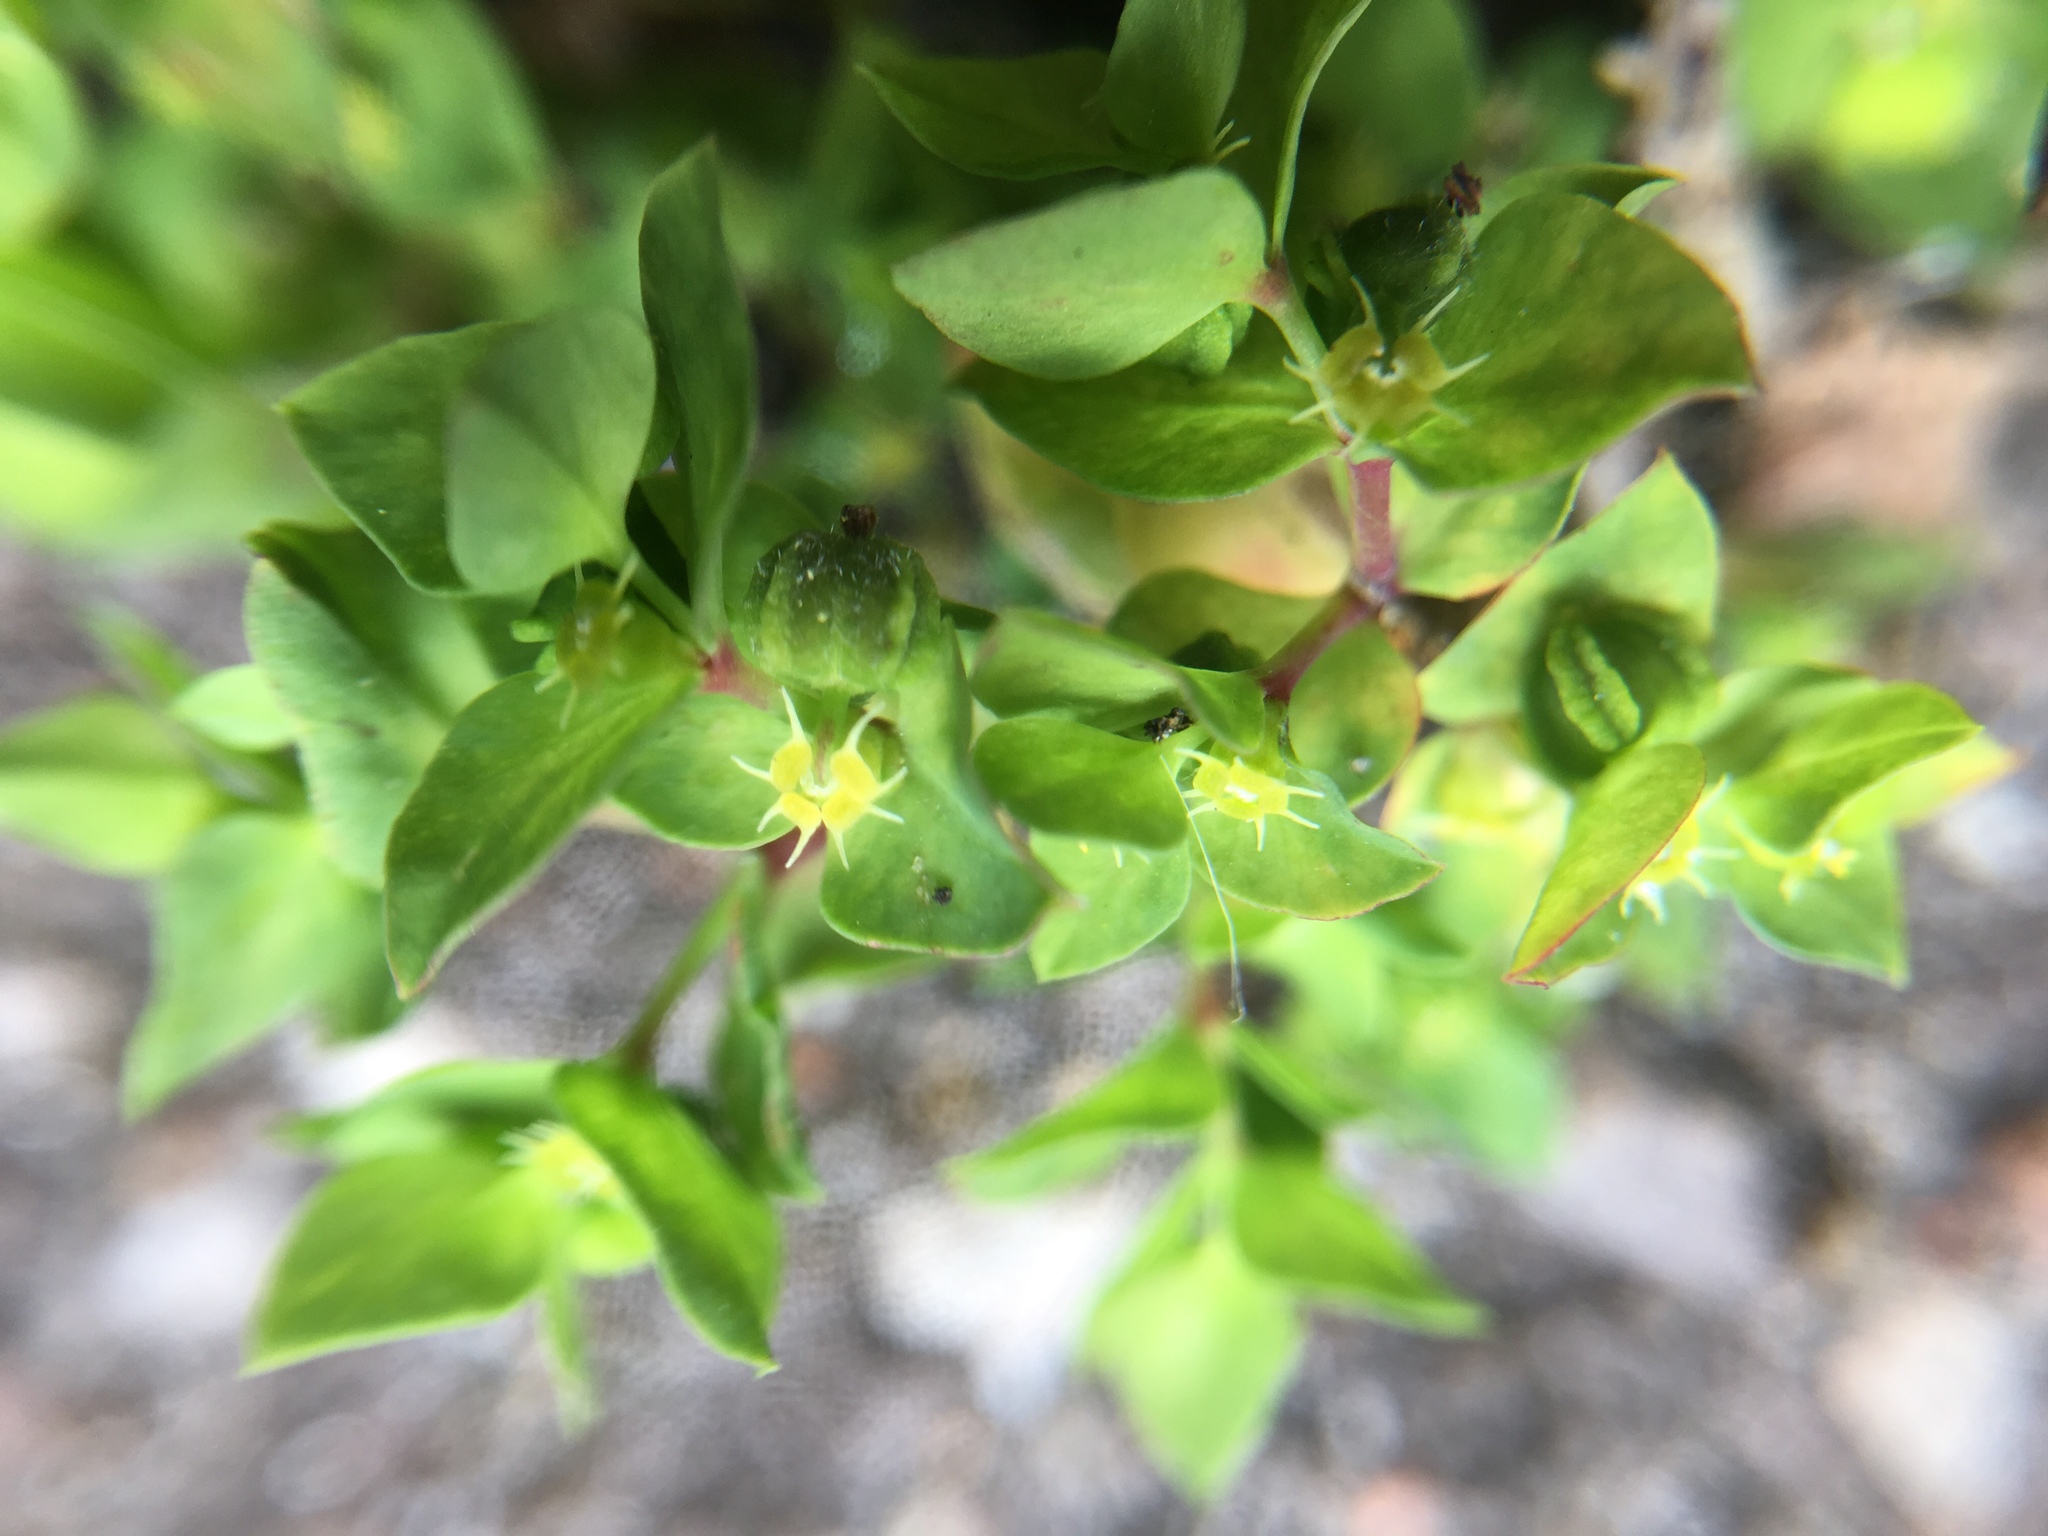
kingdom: Plantae
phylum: Tracheophyta
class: Magnoliopsida
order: Malpighiales
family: Euphorbiaceae
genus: Euphorbia
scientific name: Euphorbia peplus
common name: Petty spurge
